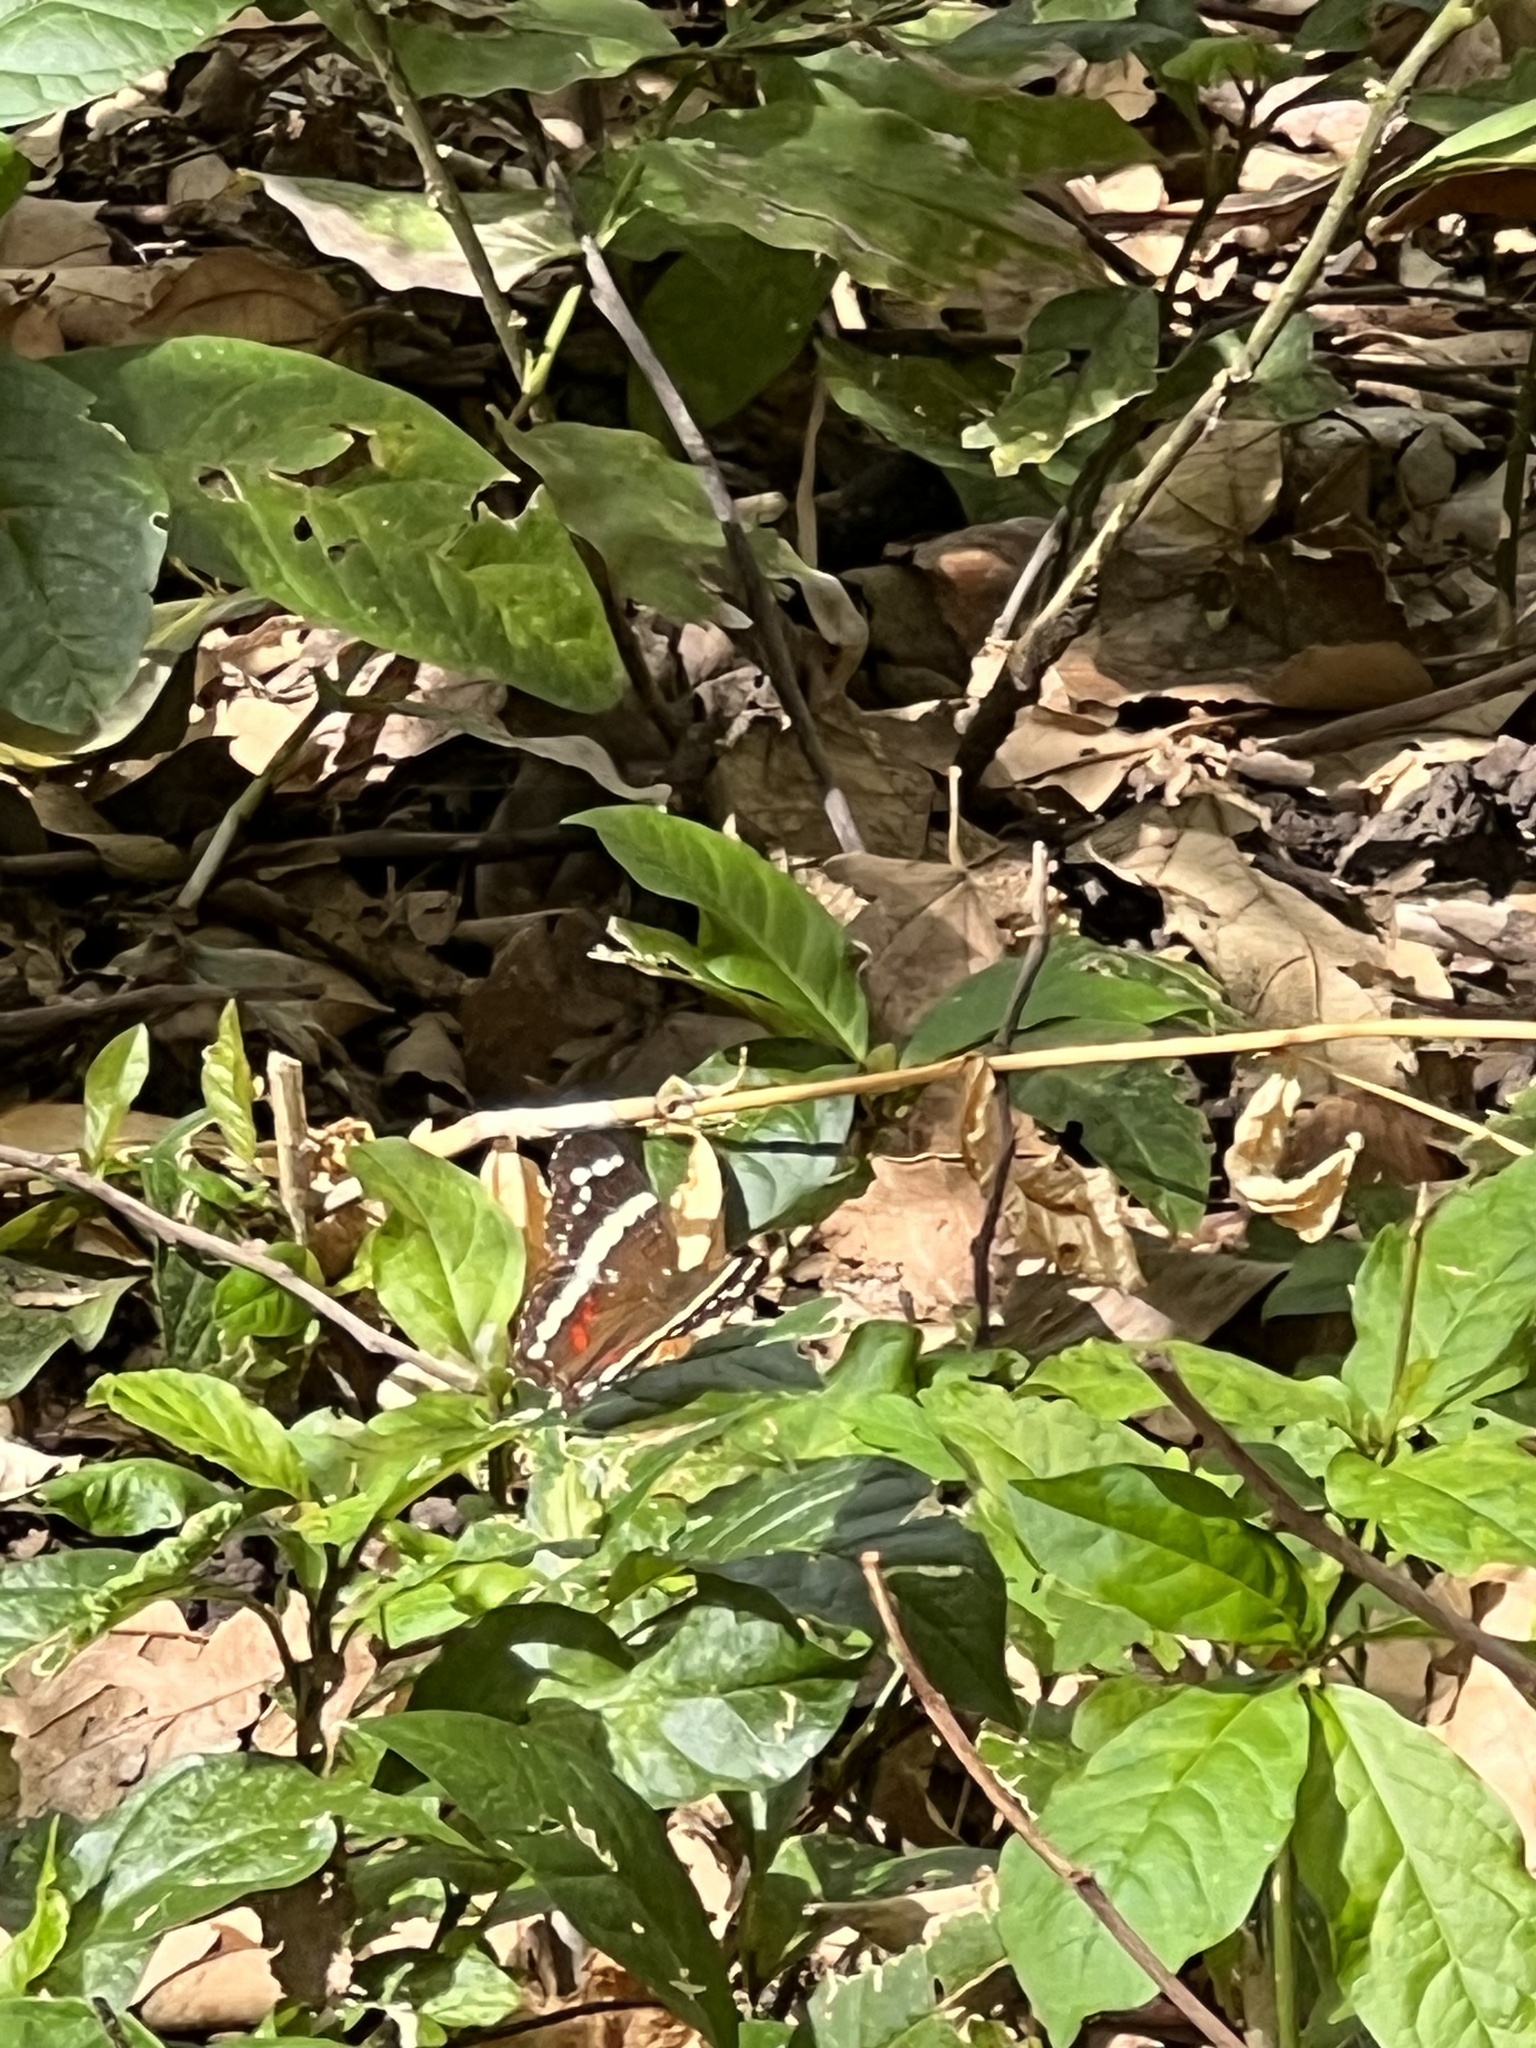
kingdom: Animalia
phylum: Arthropoda
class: Insecta
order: Lepidoptera
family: Nymphalidae
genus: Anartia
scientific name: Anartia fatima
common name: Banded peacock
